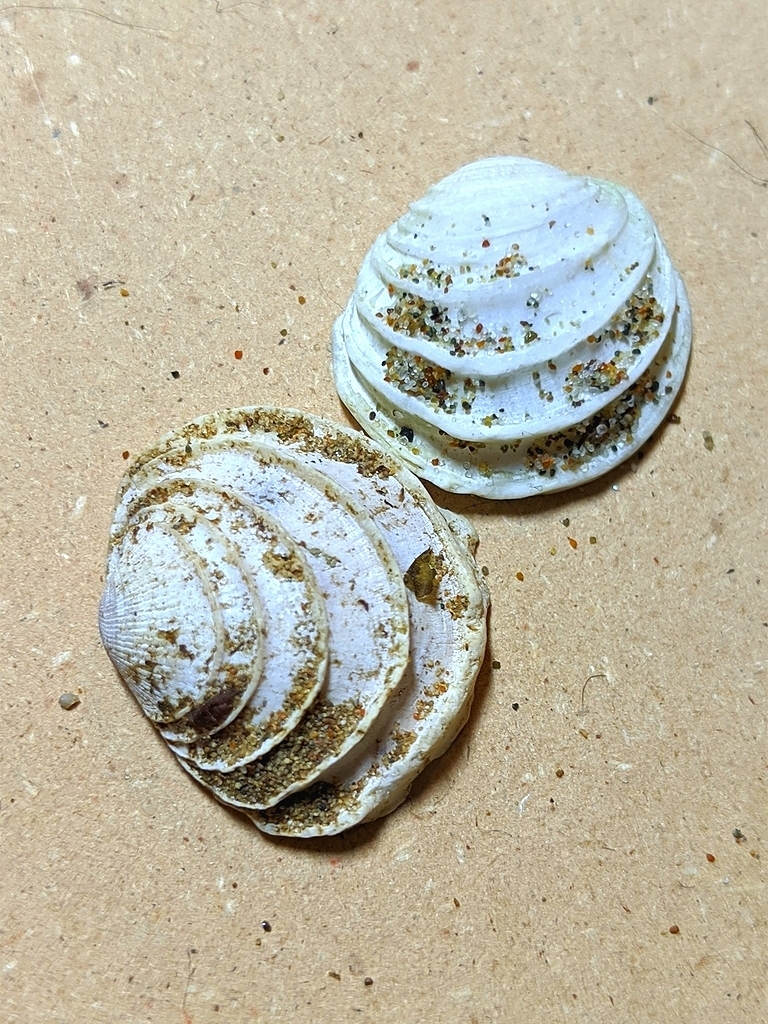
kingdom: Animalia
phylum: Mollusca
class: Bivalvia
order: Venerida
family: Veneridae
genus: Irusella
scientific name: Irusella lamellifera
